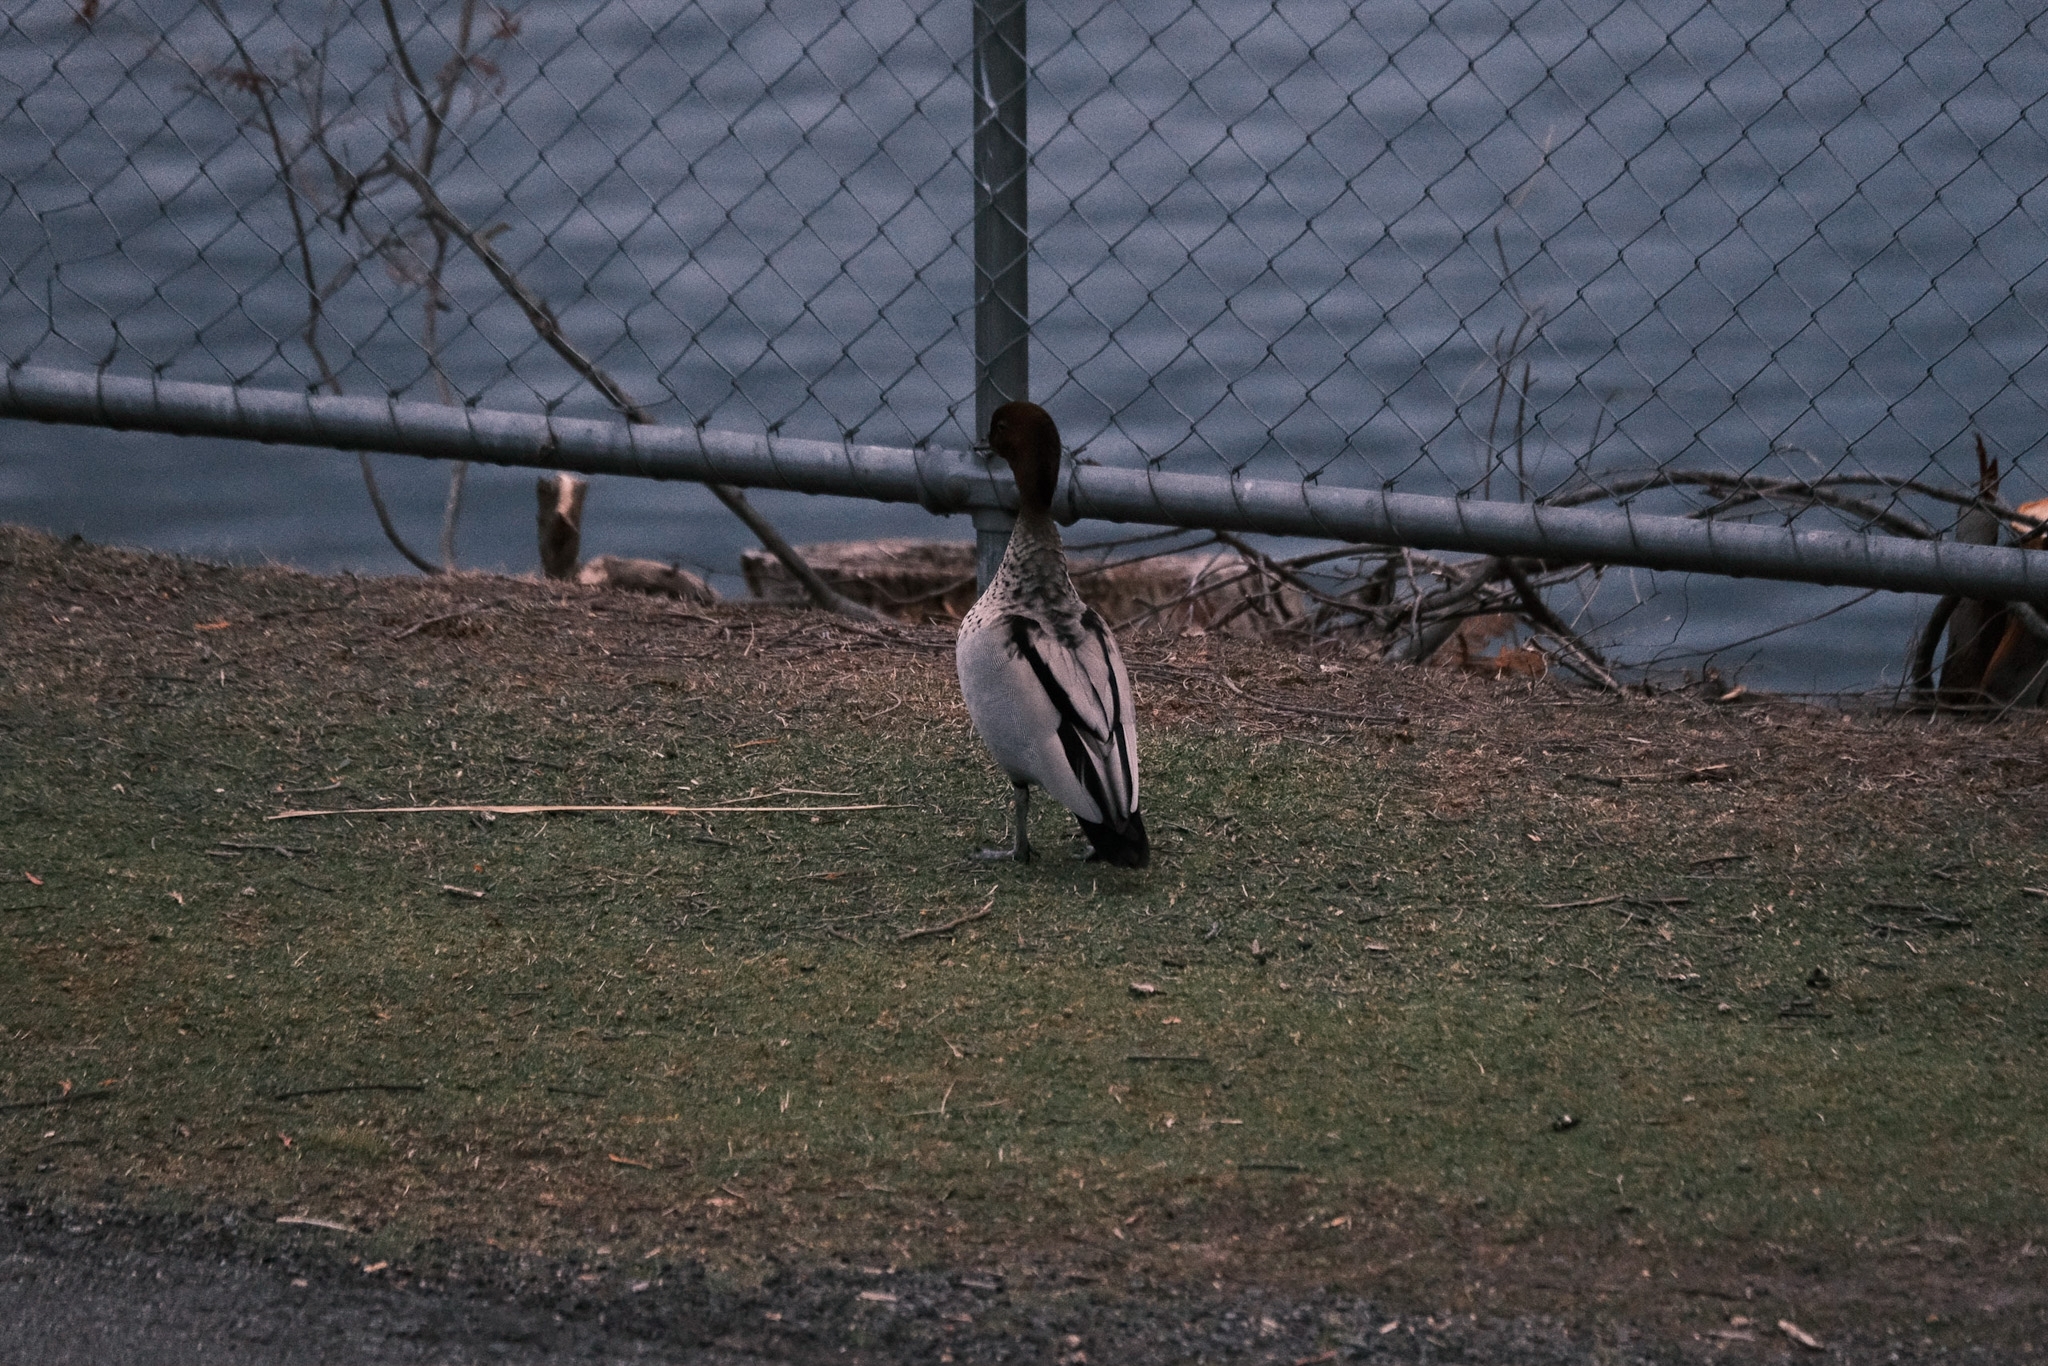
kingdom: Animalia
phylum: Chordata
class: Aves
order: Anseriformes
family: Anatidae
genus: Chenonetta
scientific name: Chenonetta jubata
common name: Maned duck
